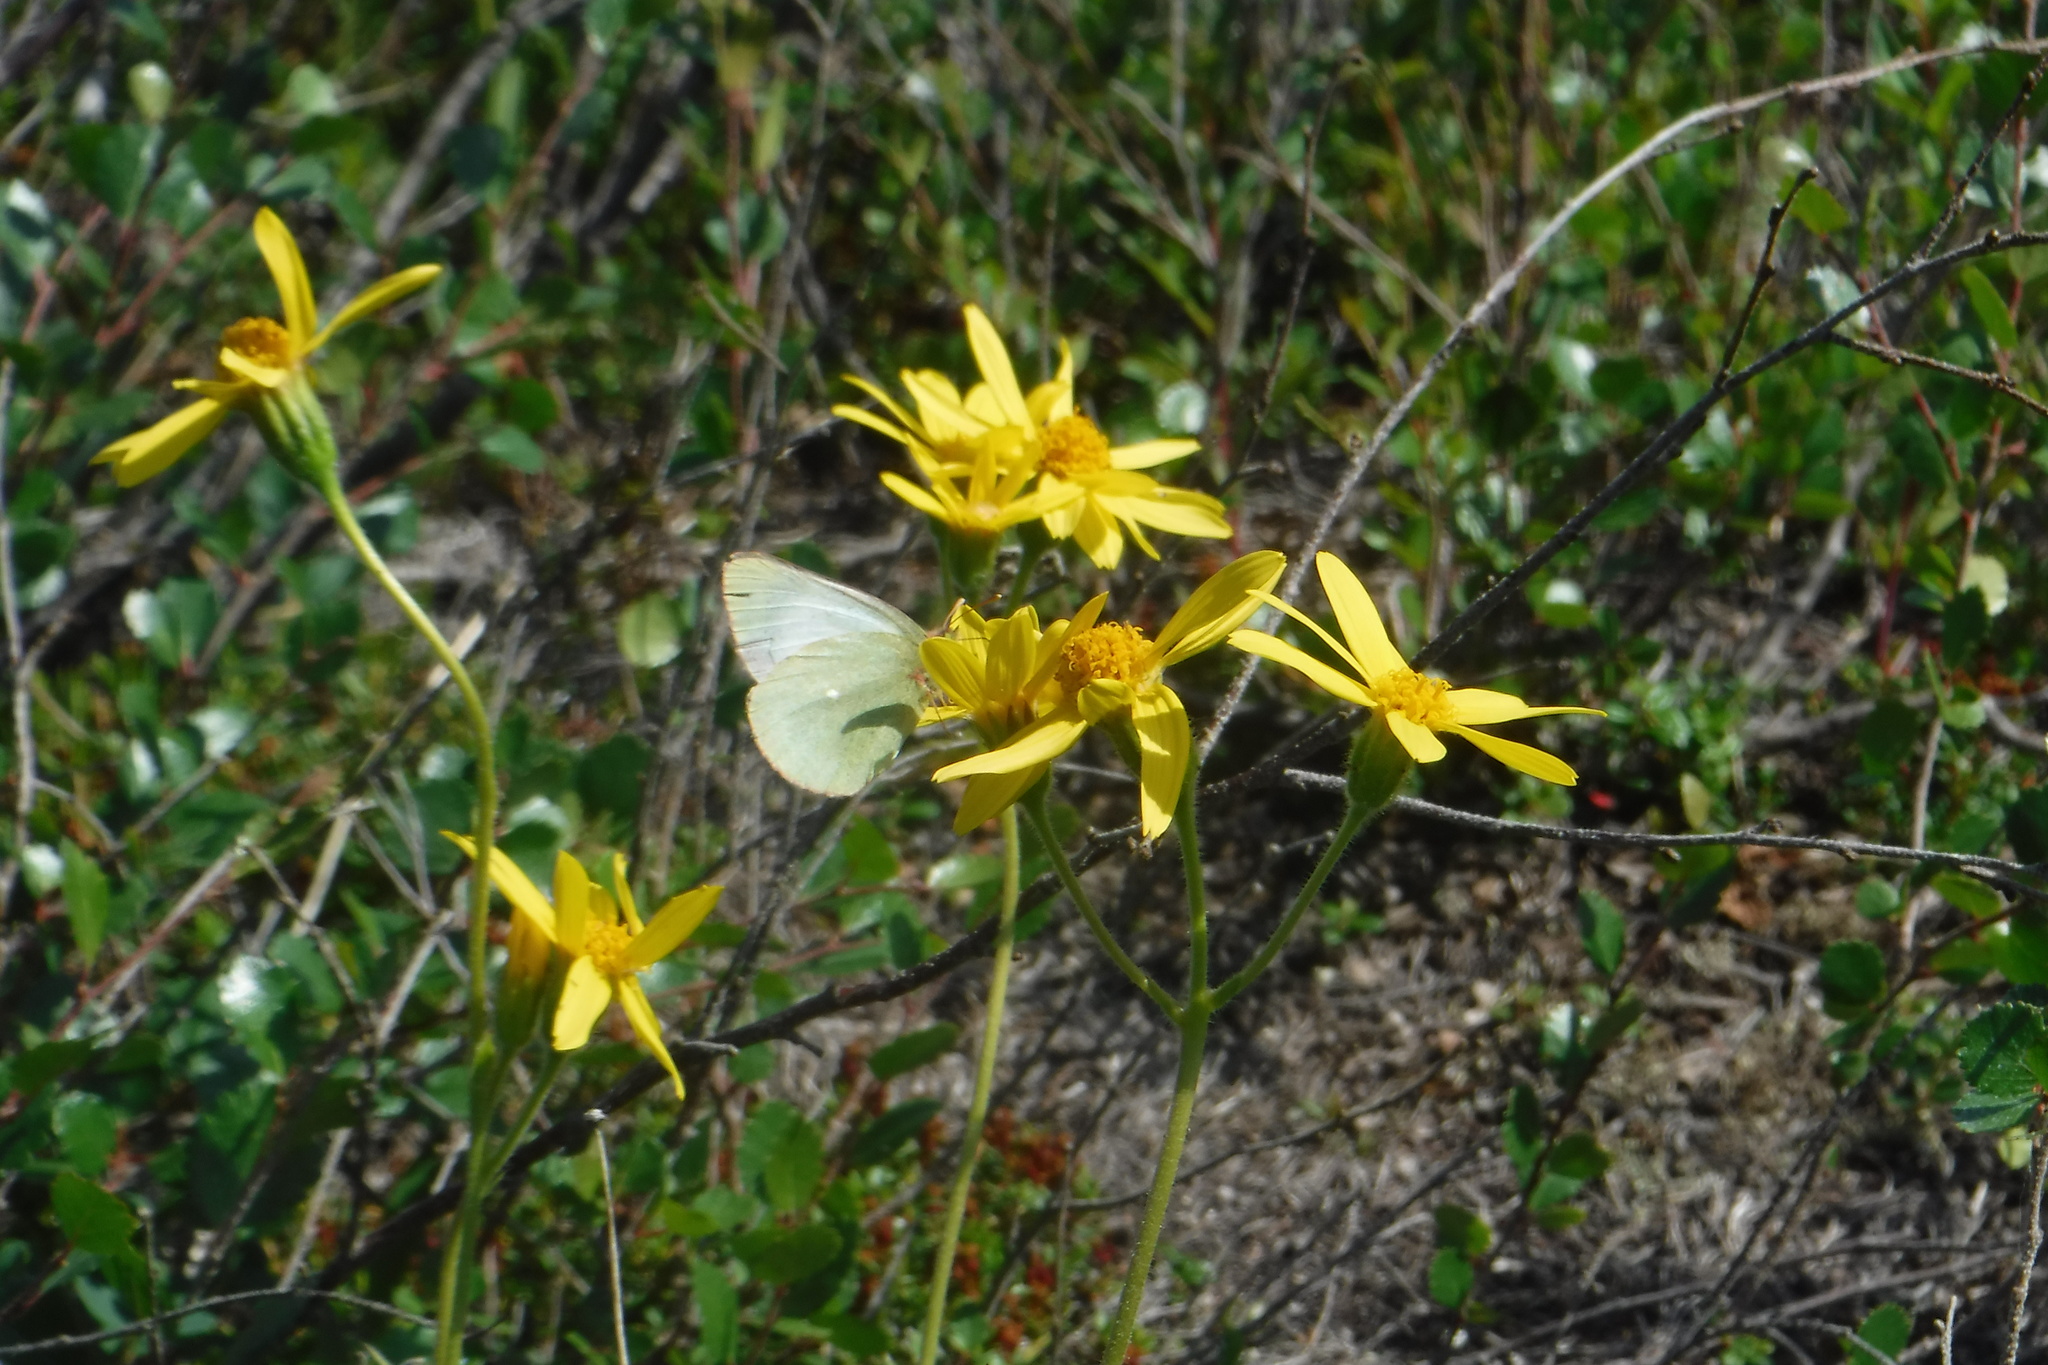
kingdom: Animalia
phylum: Arthropoda
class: Insecta
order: Lepidoptera
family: Pieridae
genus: Colias
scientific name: Colias palaeno
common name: Moorland clouded yellow
